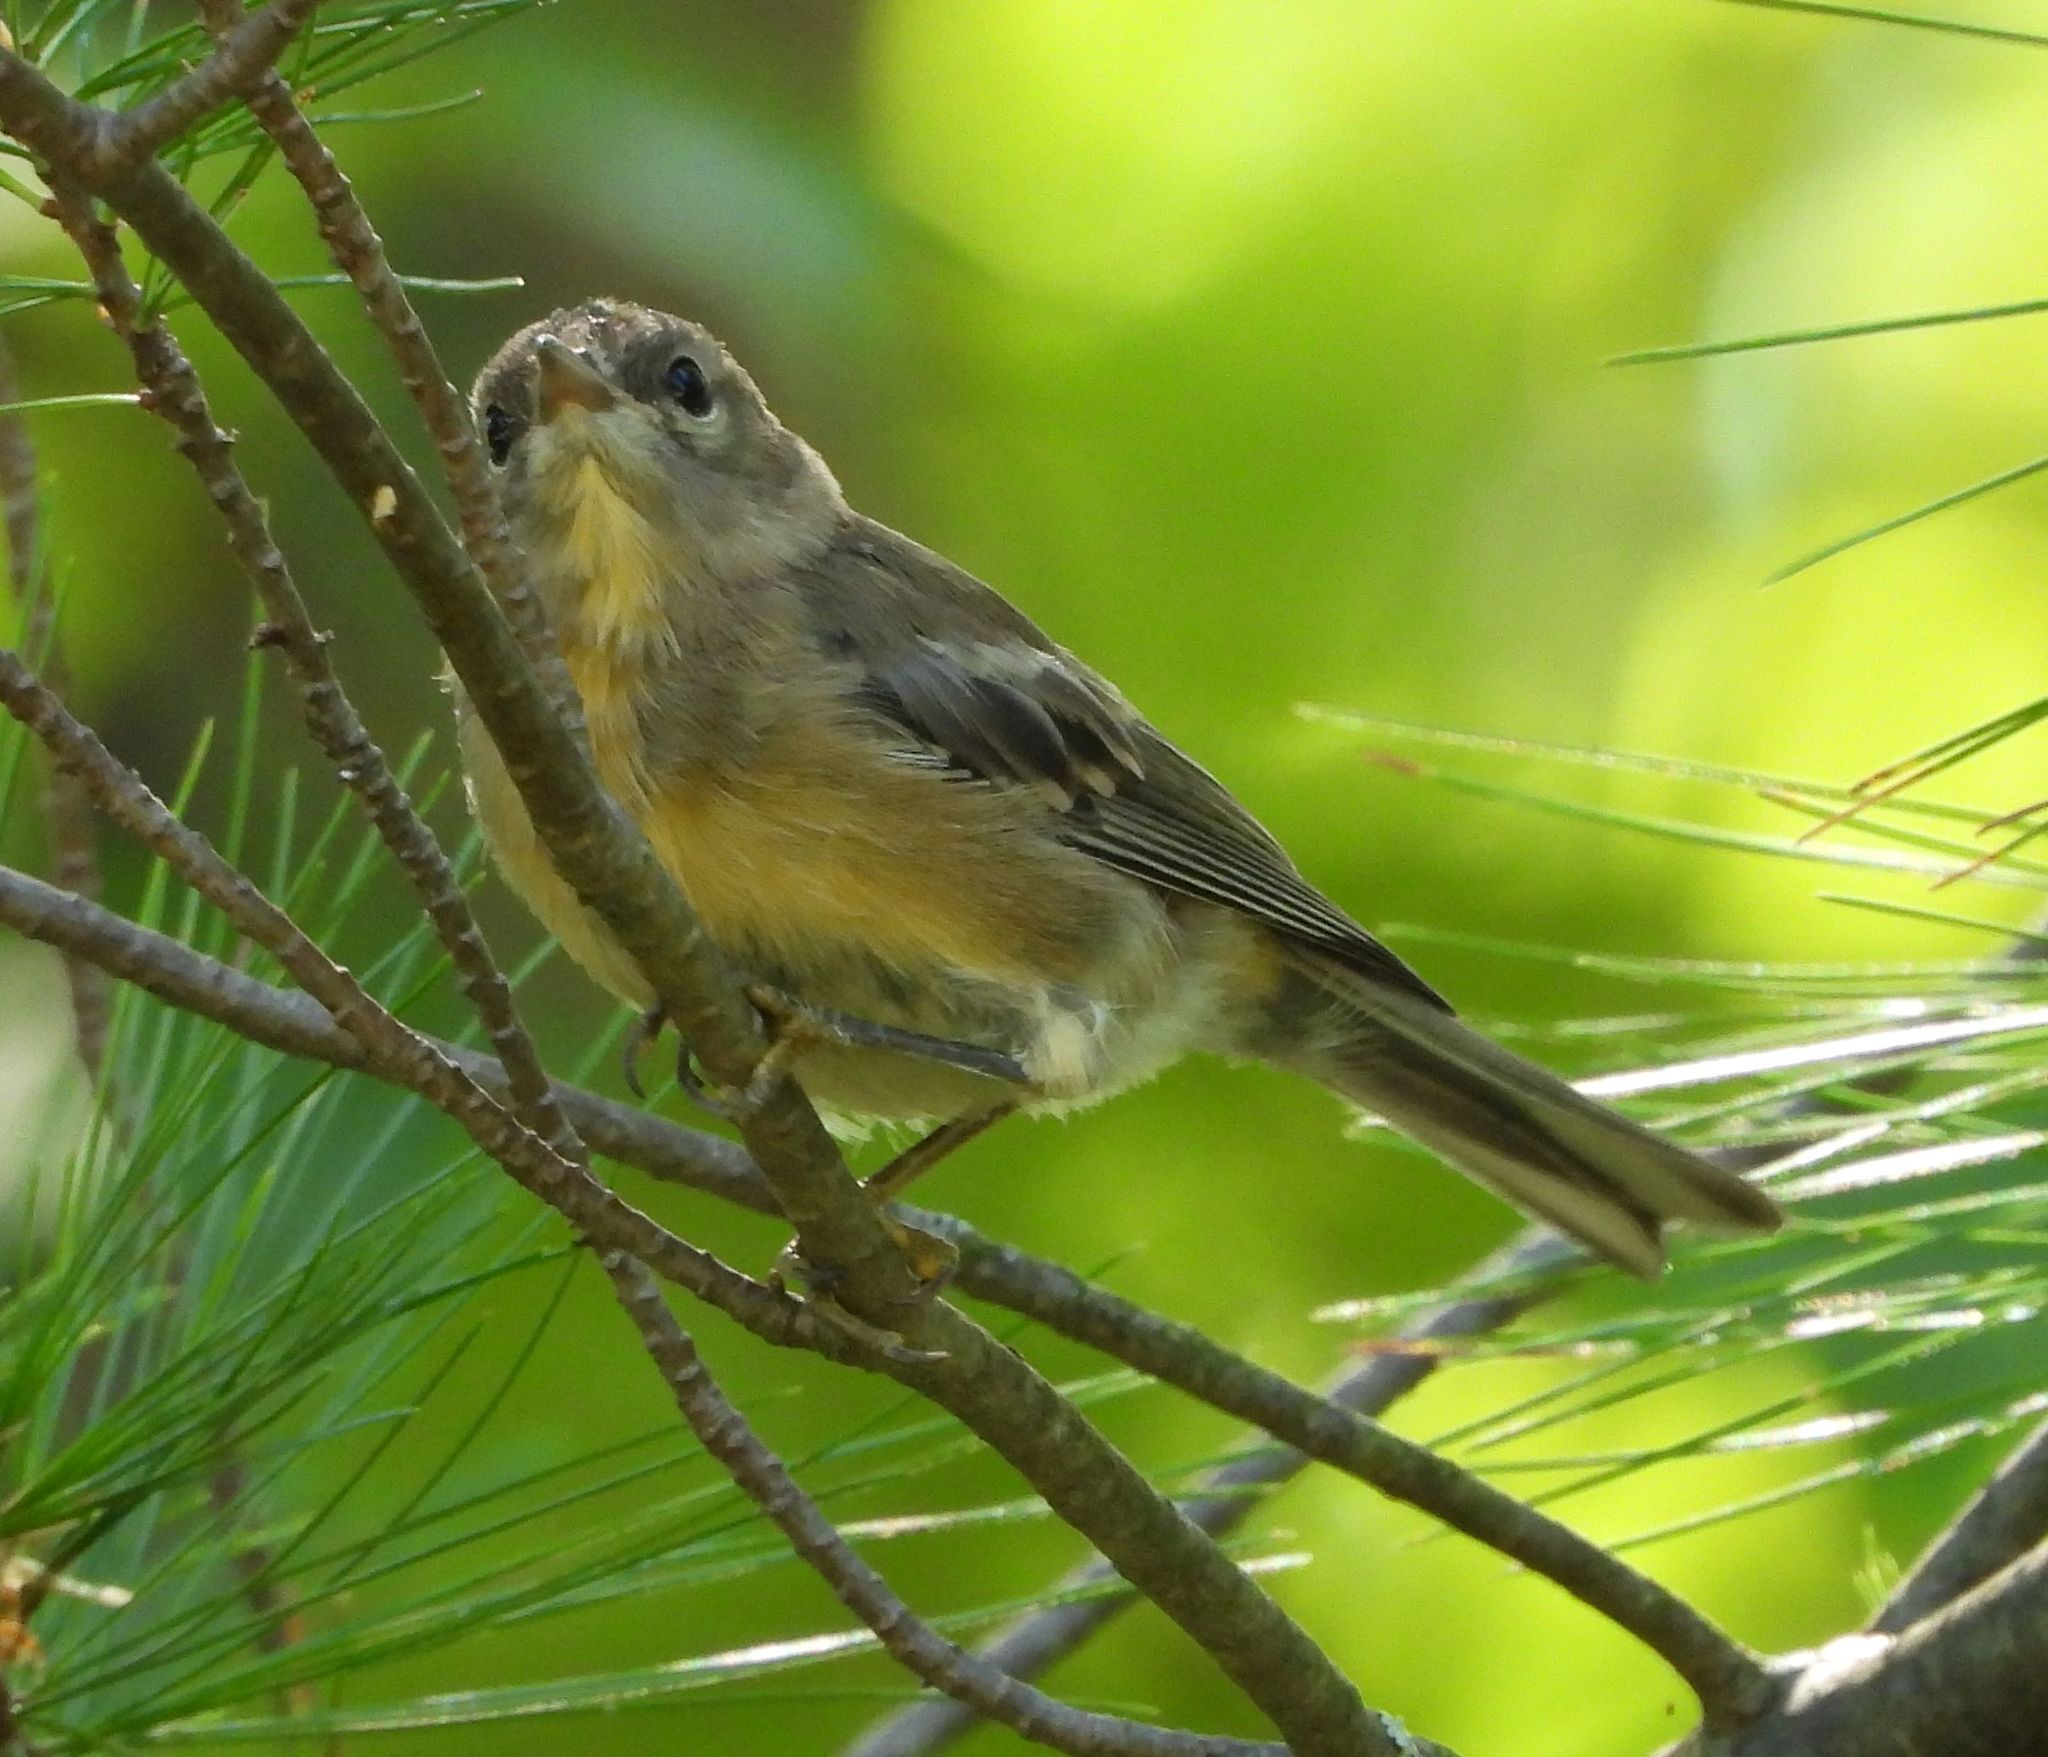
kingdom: Animalia
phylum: Chordata
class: Aves
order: Passeriformes
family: Parulidae
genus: Setophaga
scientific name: Setophaga pinus
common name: Pine warbler
